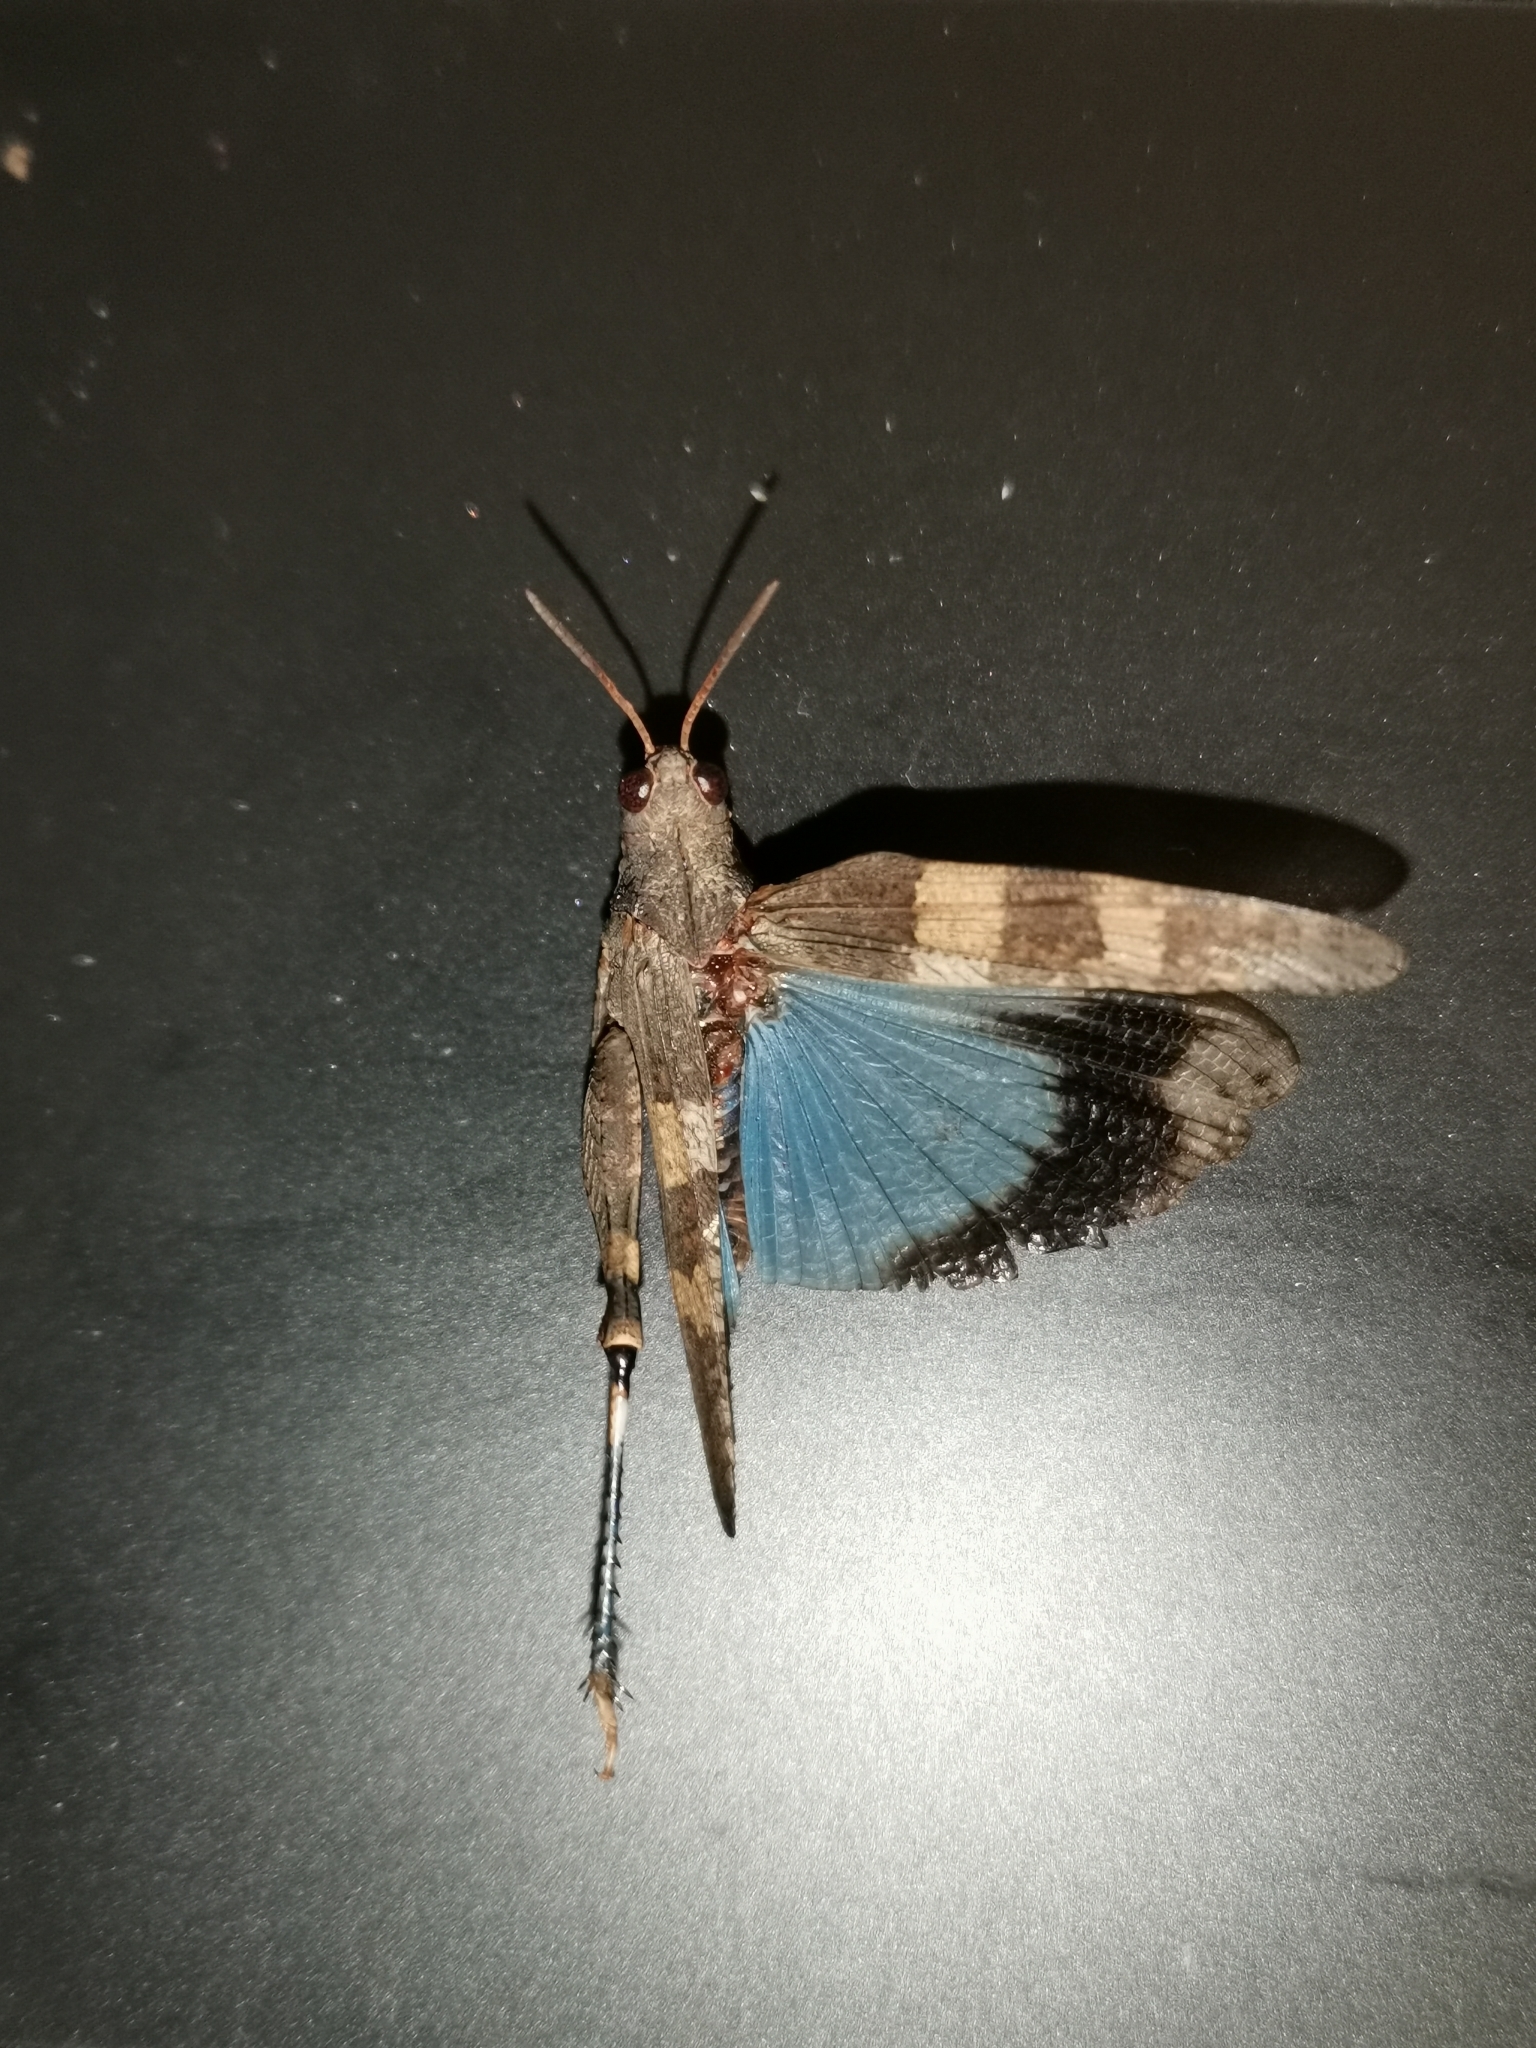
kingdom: Animalia
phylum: Arthropoda
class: Insecta
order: Orthoptera
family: Acrididae
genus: Oedipoda
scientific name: Oedipoda caerulescens
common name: Blue-winged grasshopper
